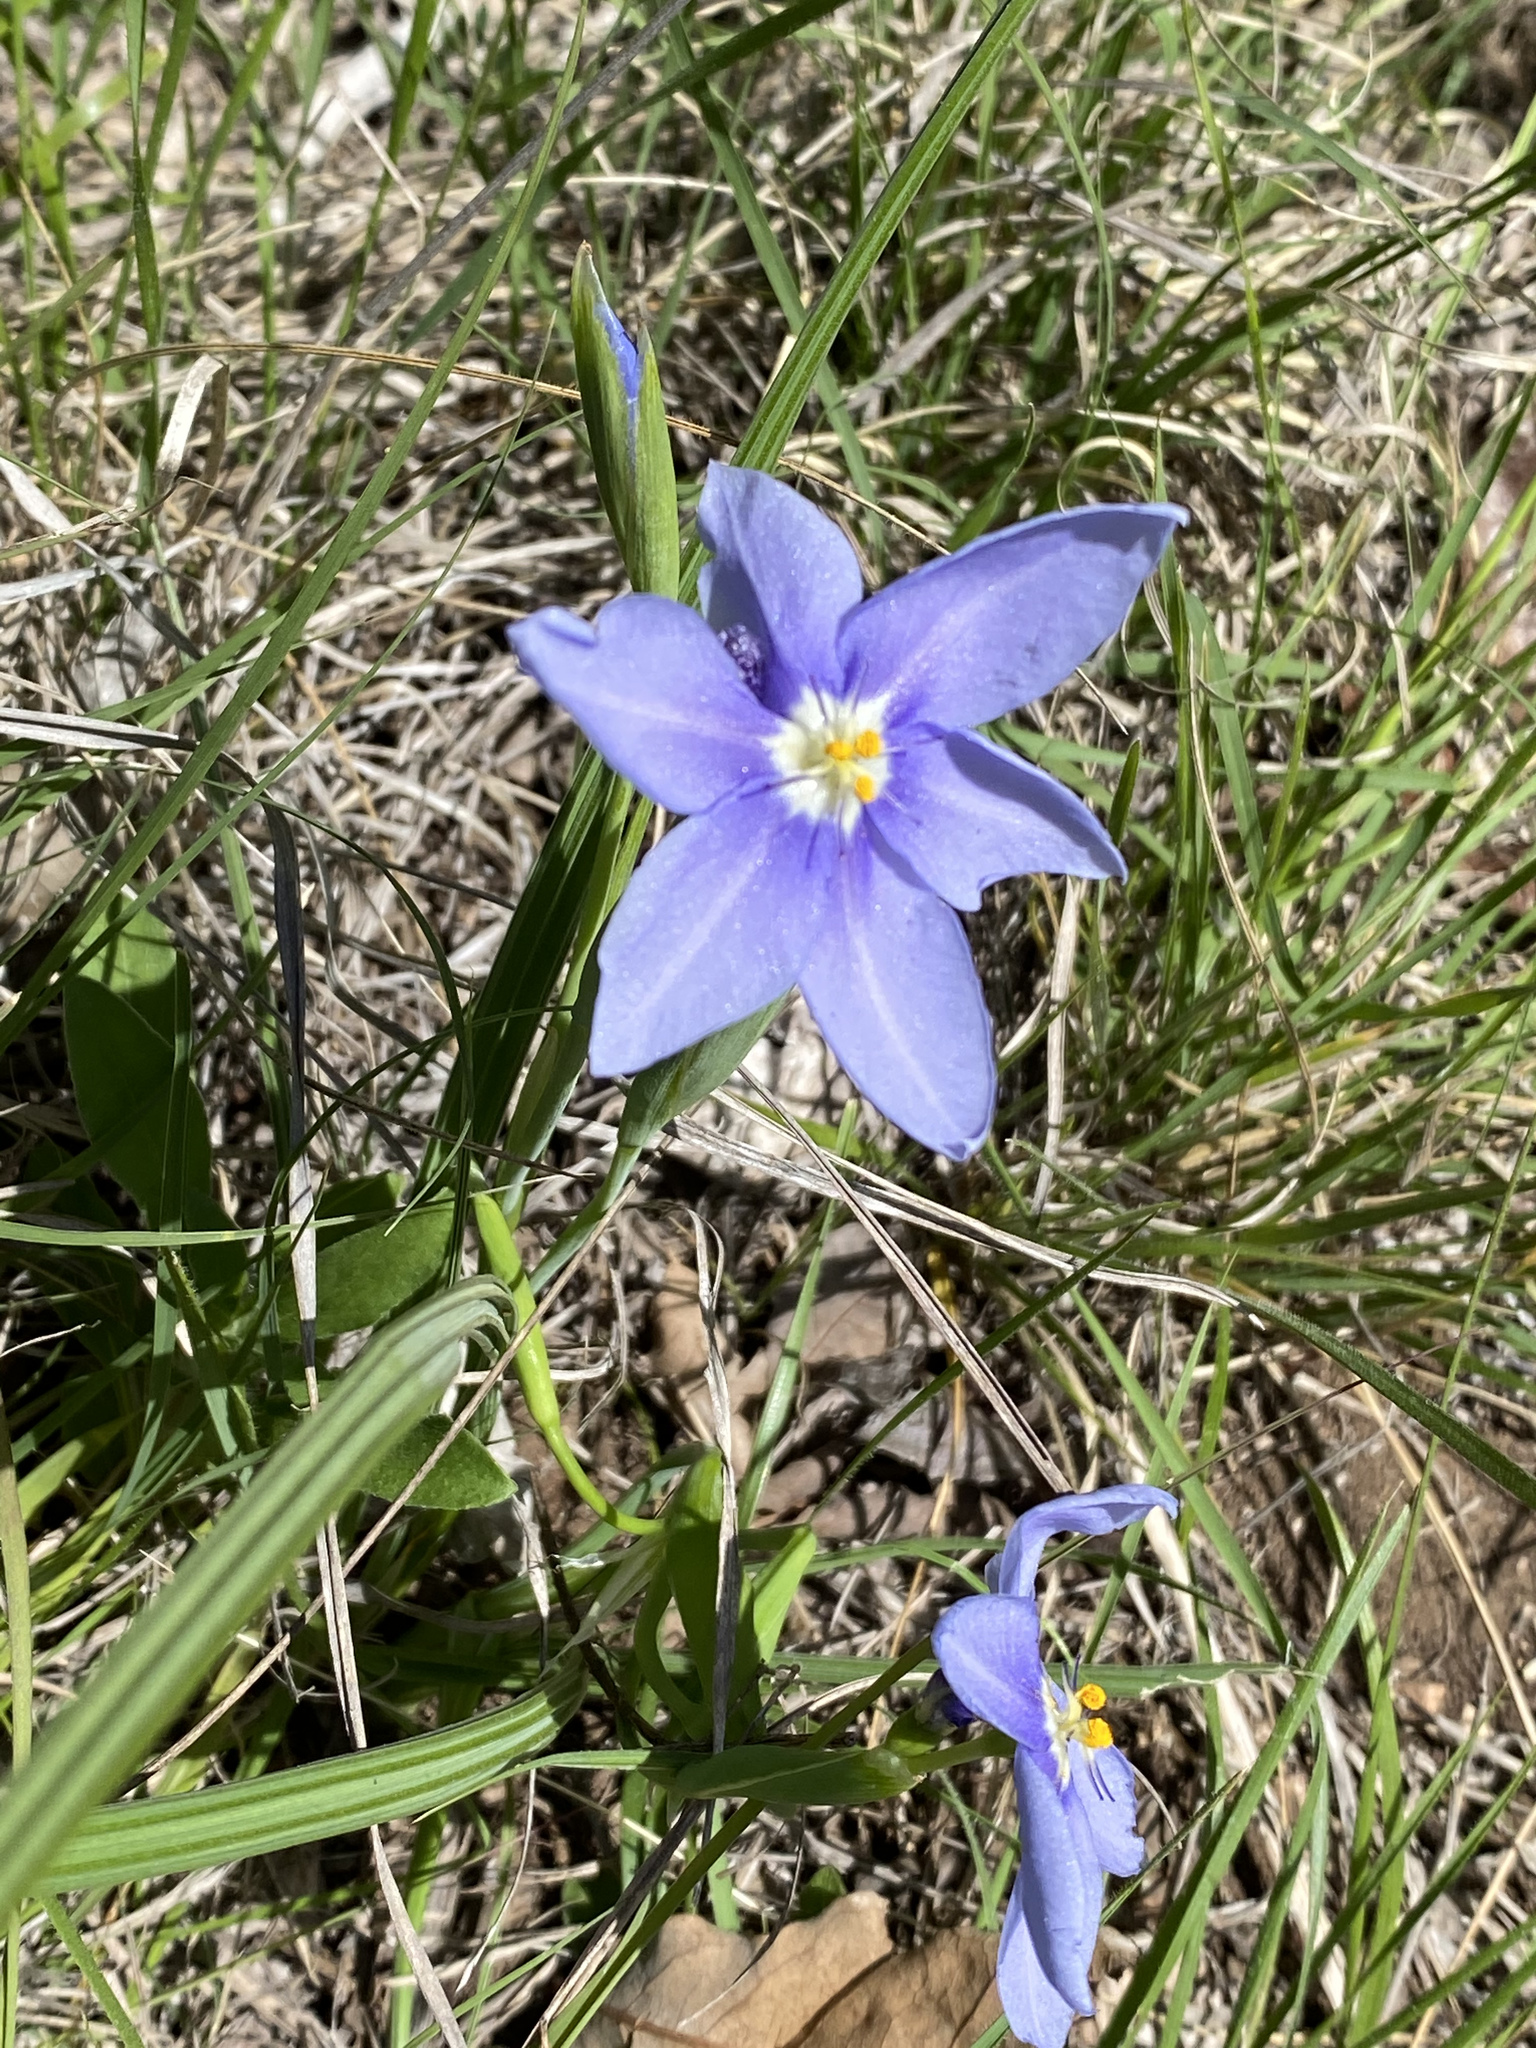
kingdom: Plantae
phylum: Tracheophyta
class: Liliopsida
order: Asparagales
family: Iridaceae
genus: Nemastylis
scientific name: Nemastylis geminiflora
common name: Prairie celestial
